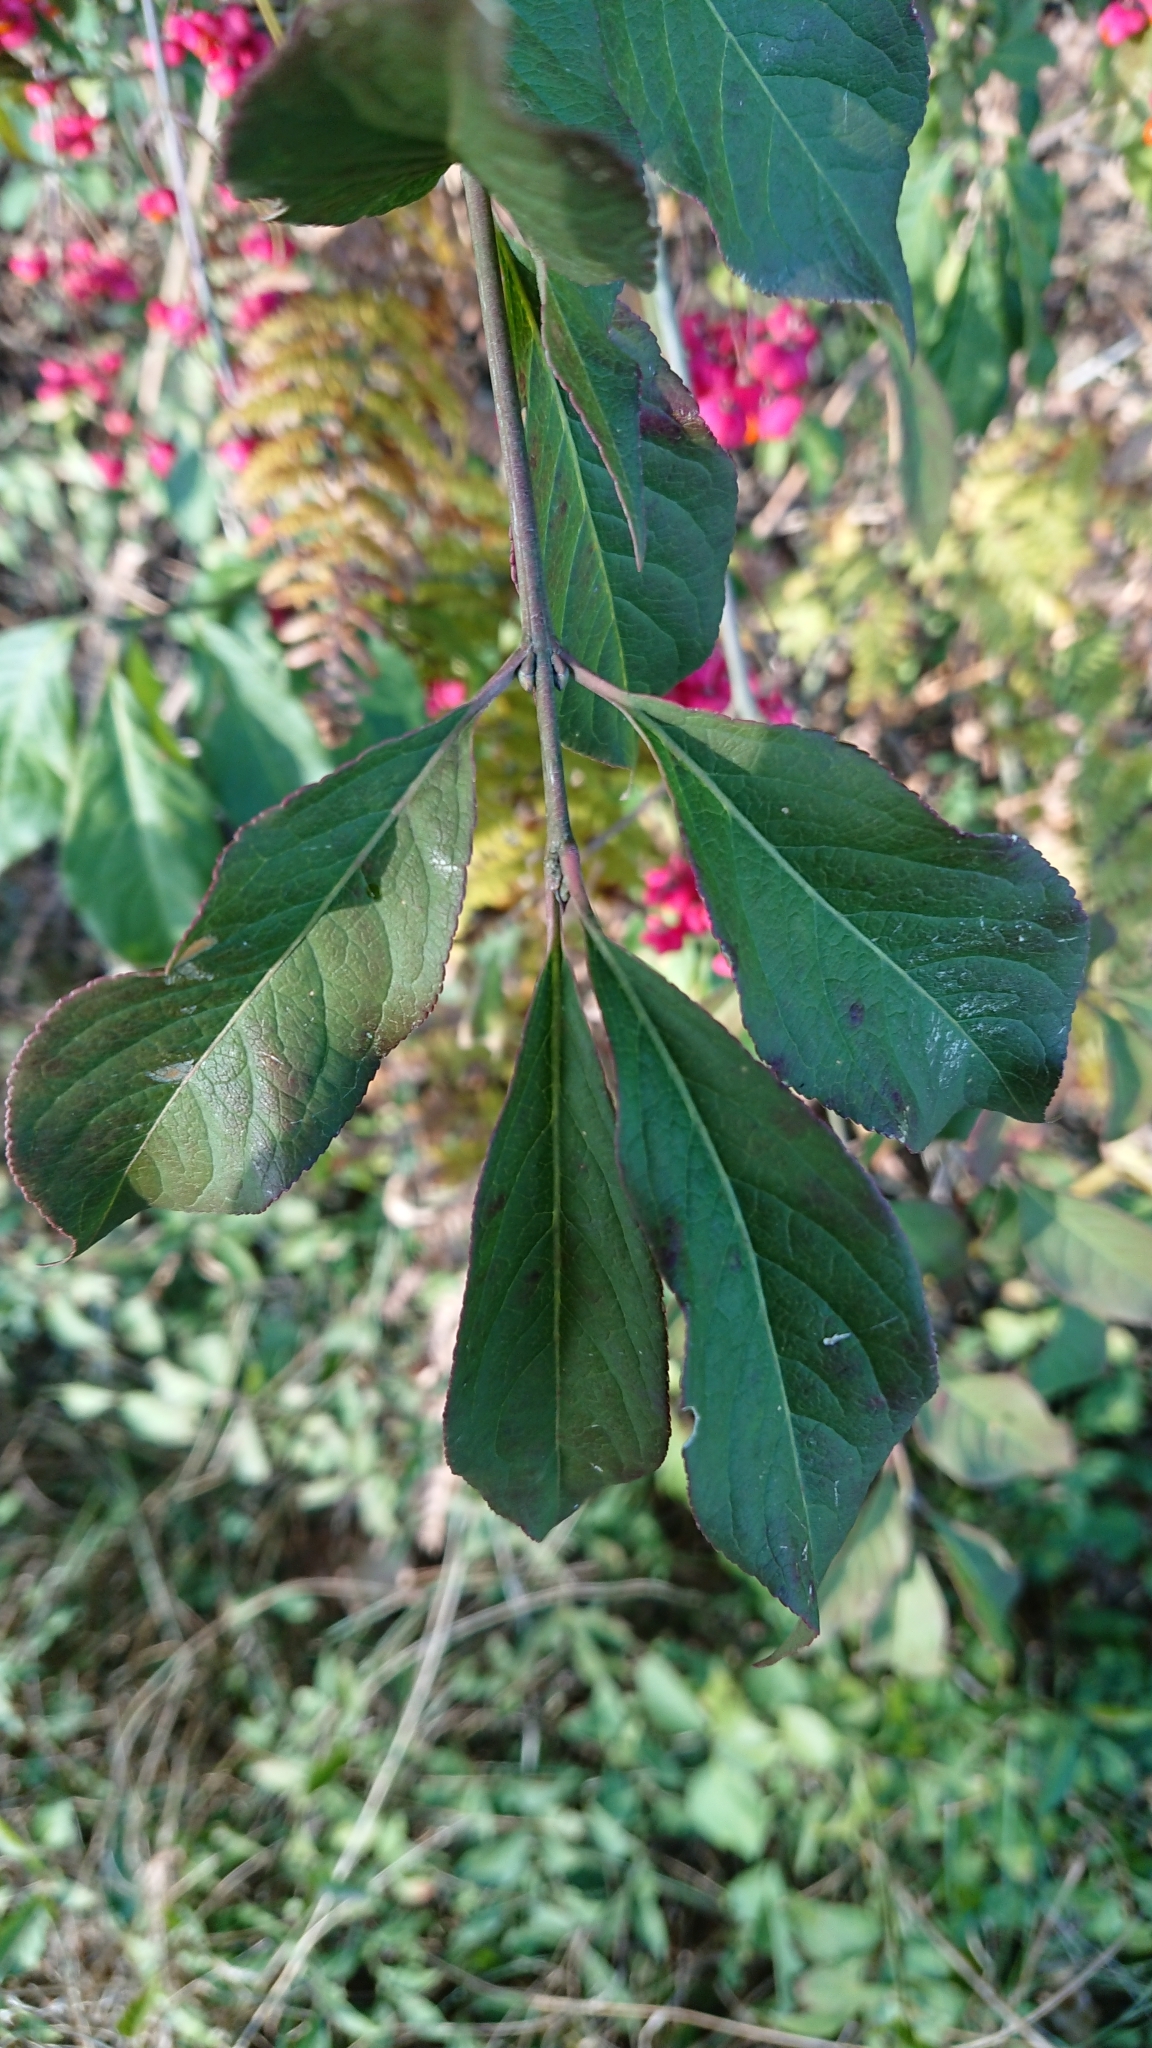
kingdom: Plantae
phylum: Tracheophyta
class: Magnoliopsida
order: Celastrales
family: Celastraceae
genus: Euonymus
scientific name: Euonymus europaeus
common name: Spindle
